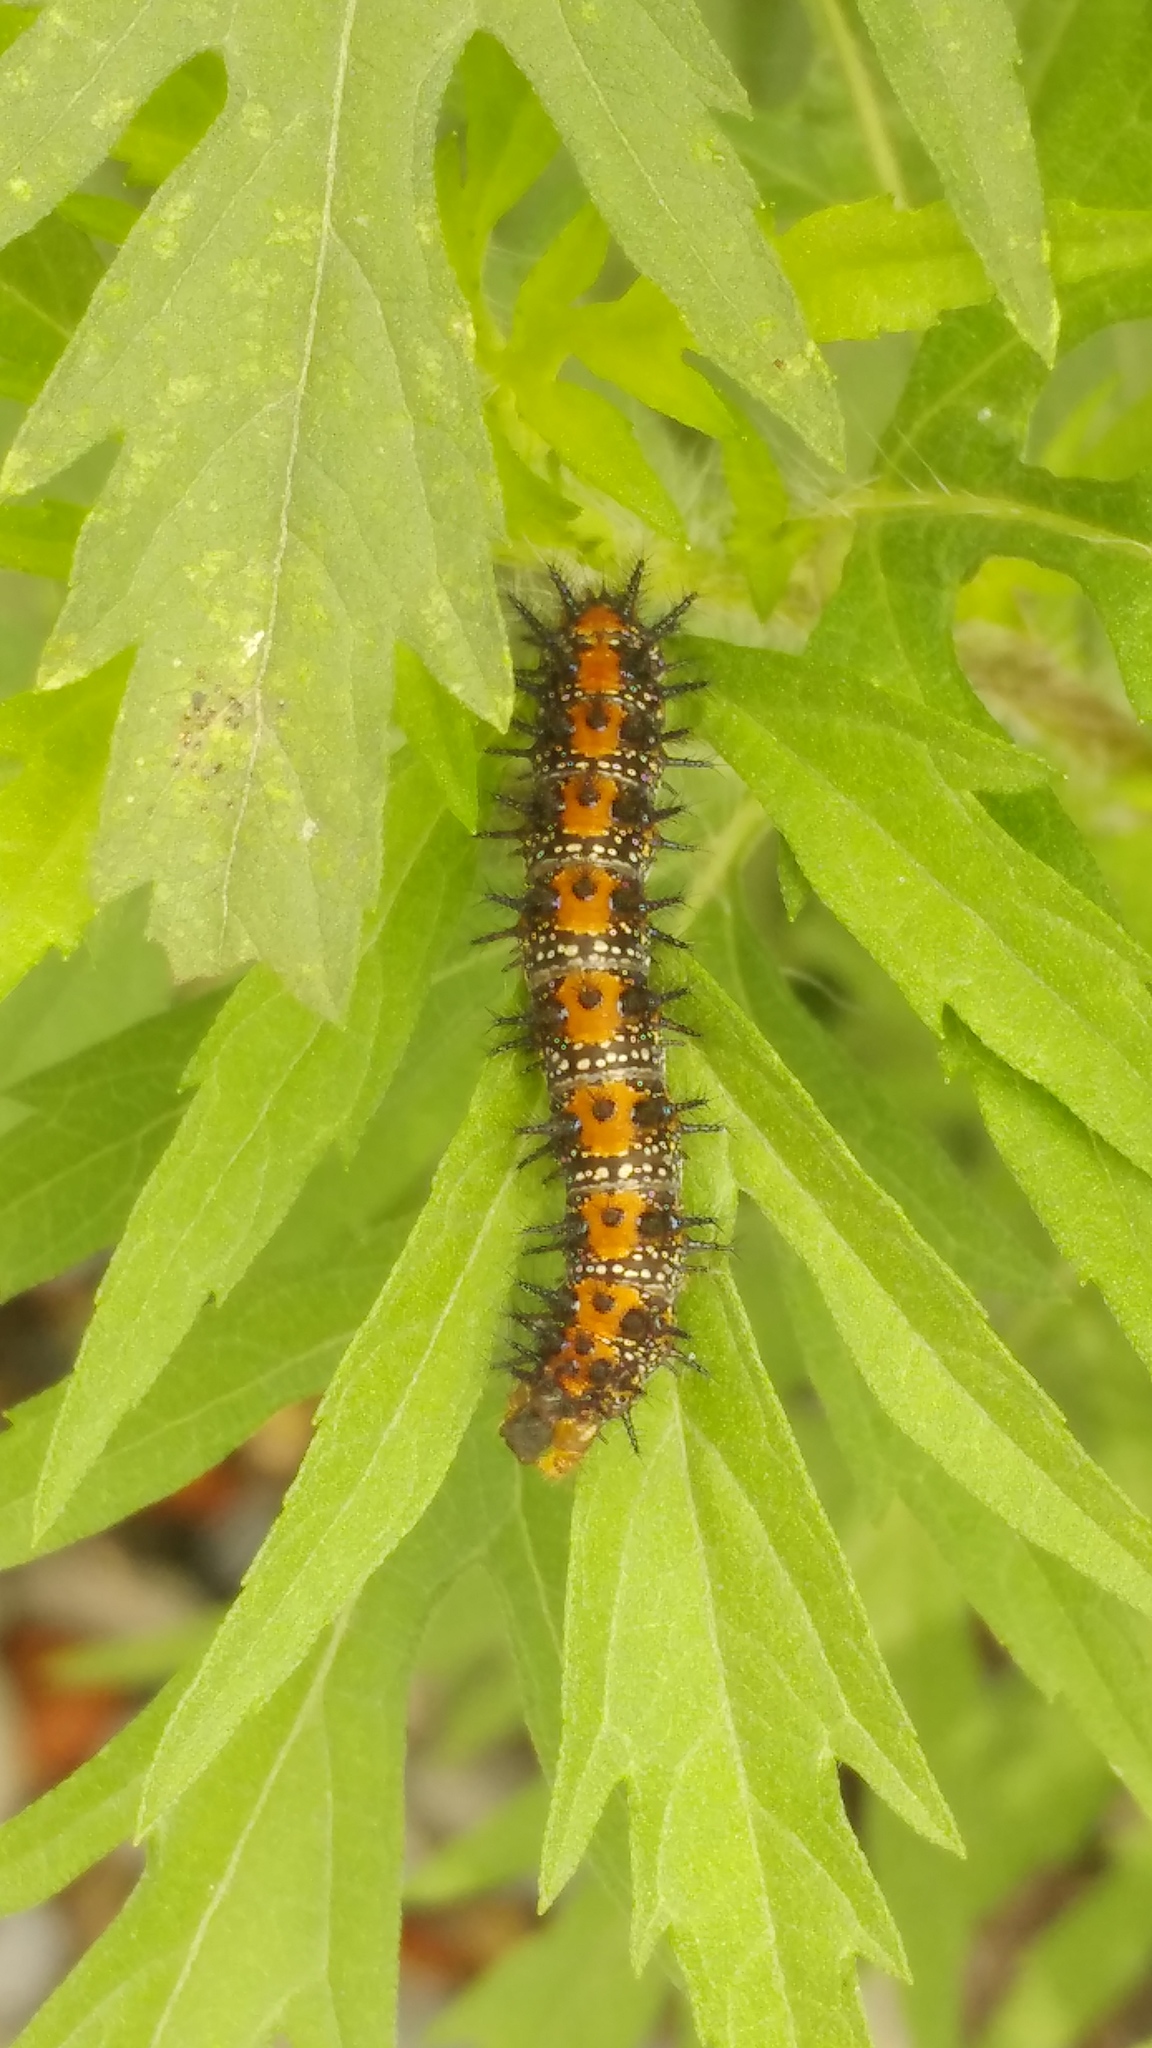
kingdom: Animalia
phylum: Arthropoda
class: Insecta
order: Lepidoptera
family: Nymphalidae
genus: Chlosyne
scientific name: Chlosyne lacinia
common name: Bordered patch
